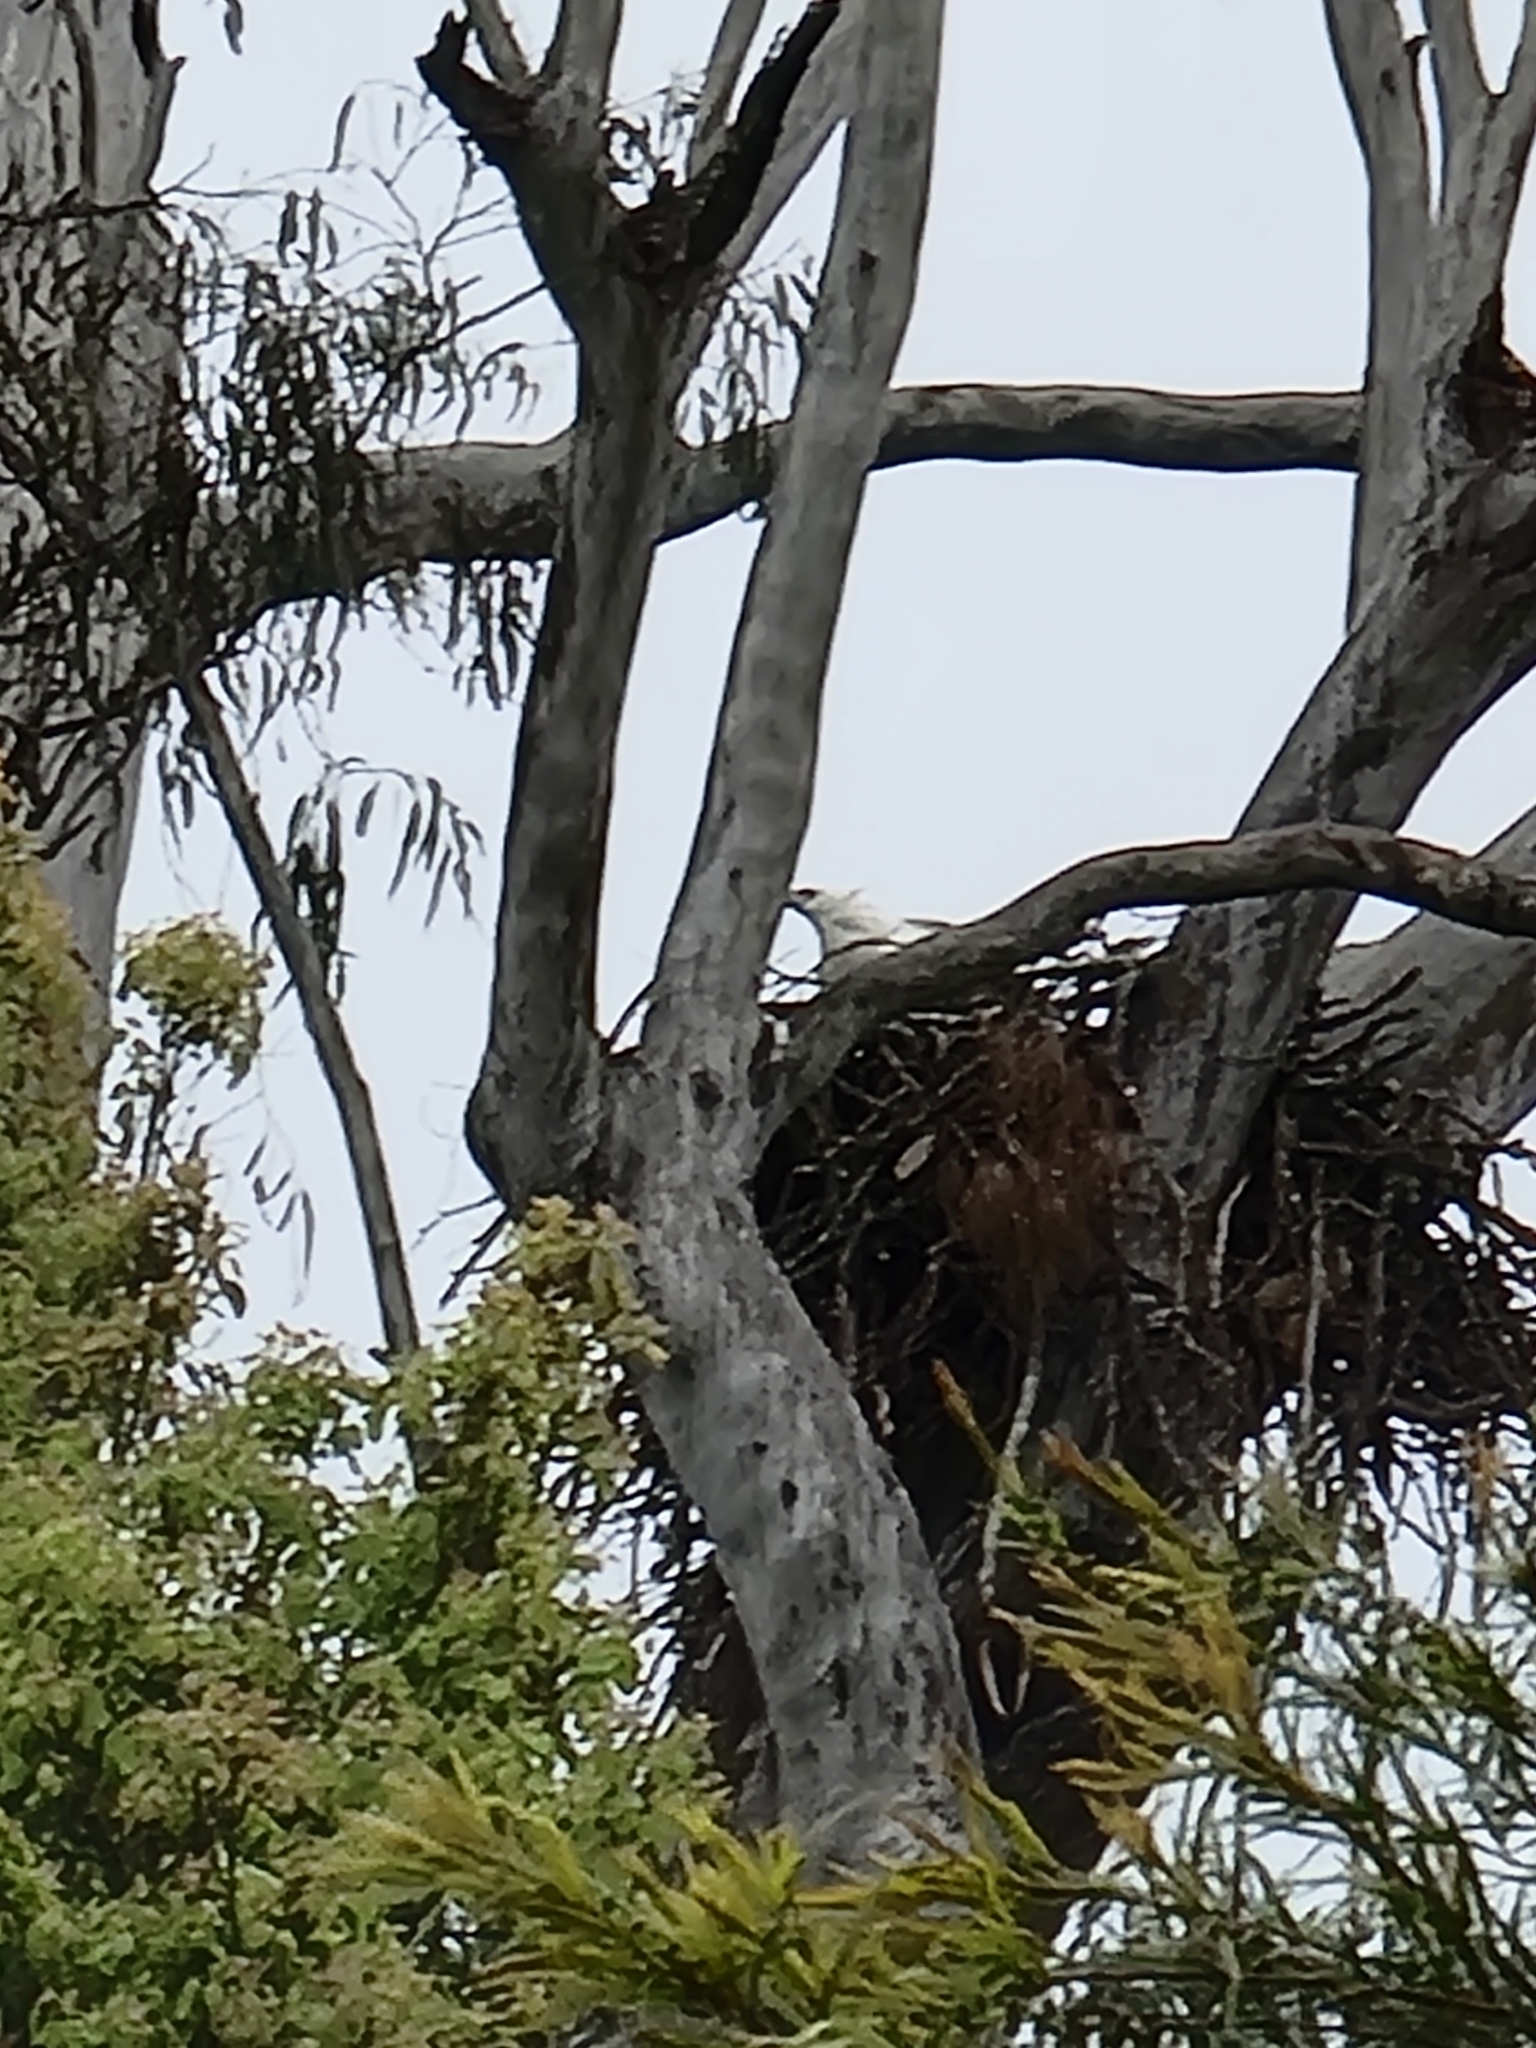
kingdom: Animalia
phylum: Chordata
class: Aves
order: Accipitriformes
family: Accipitridae
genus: Haliaeetus
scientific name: Haliaeetus leucogaster
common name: White-bellied sea eagle
